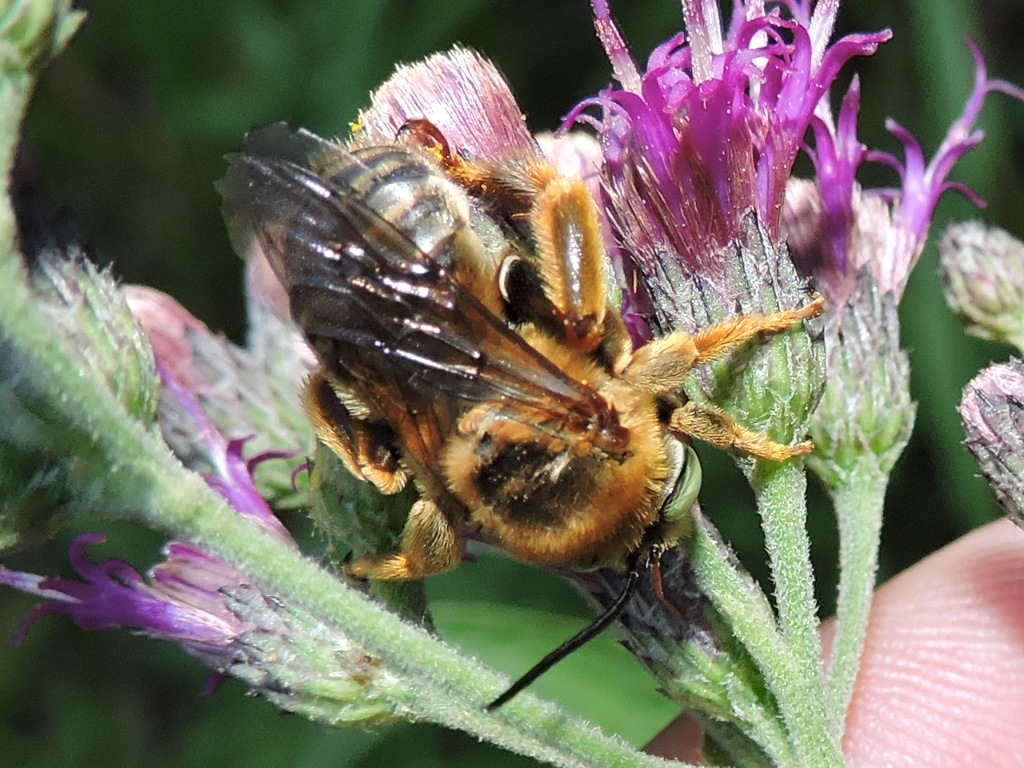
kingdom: Animalia
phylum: Arthropoda
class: Insecta
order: Hymenoptera
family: Apidae
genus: Svastra
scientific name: Svastra obliqua
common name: Oblique longhorn
